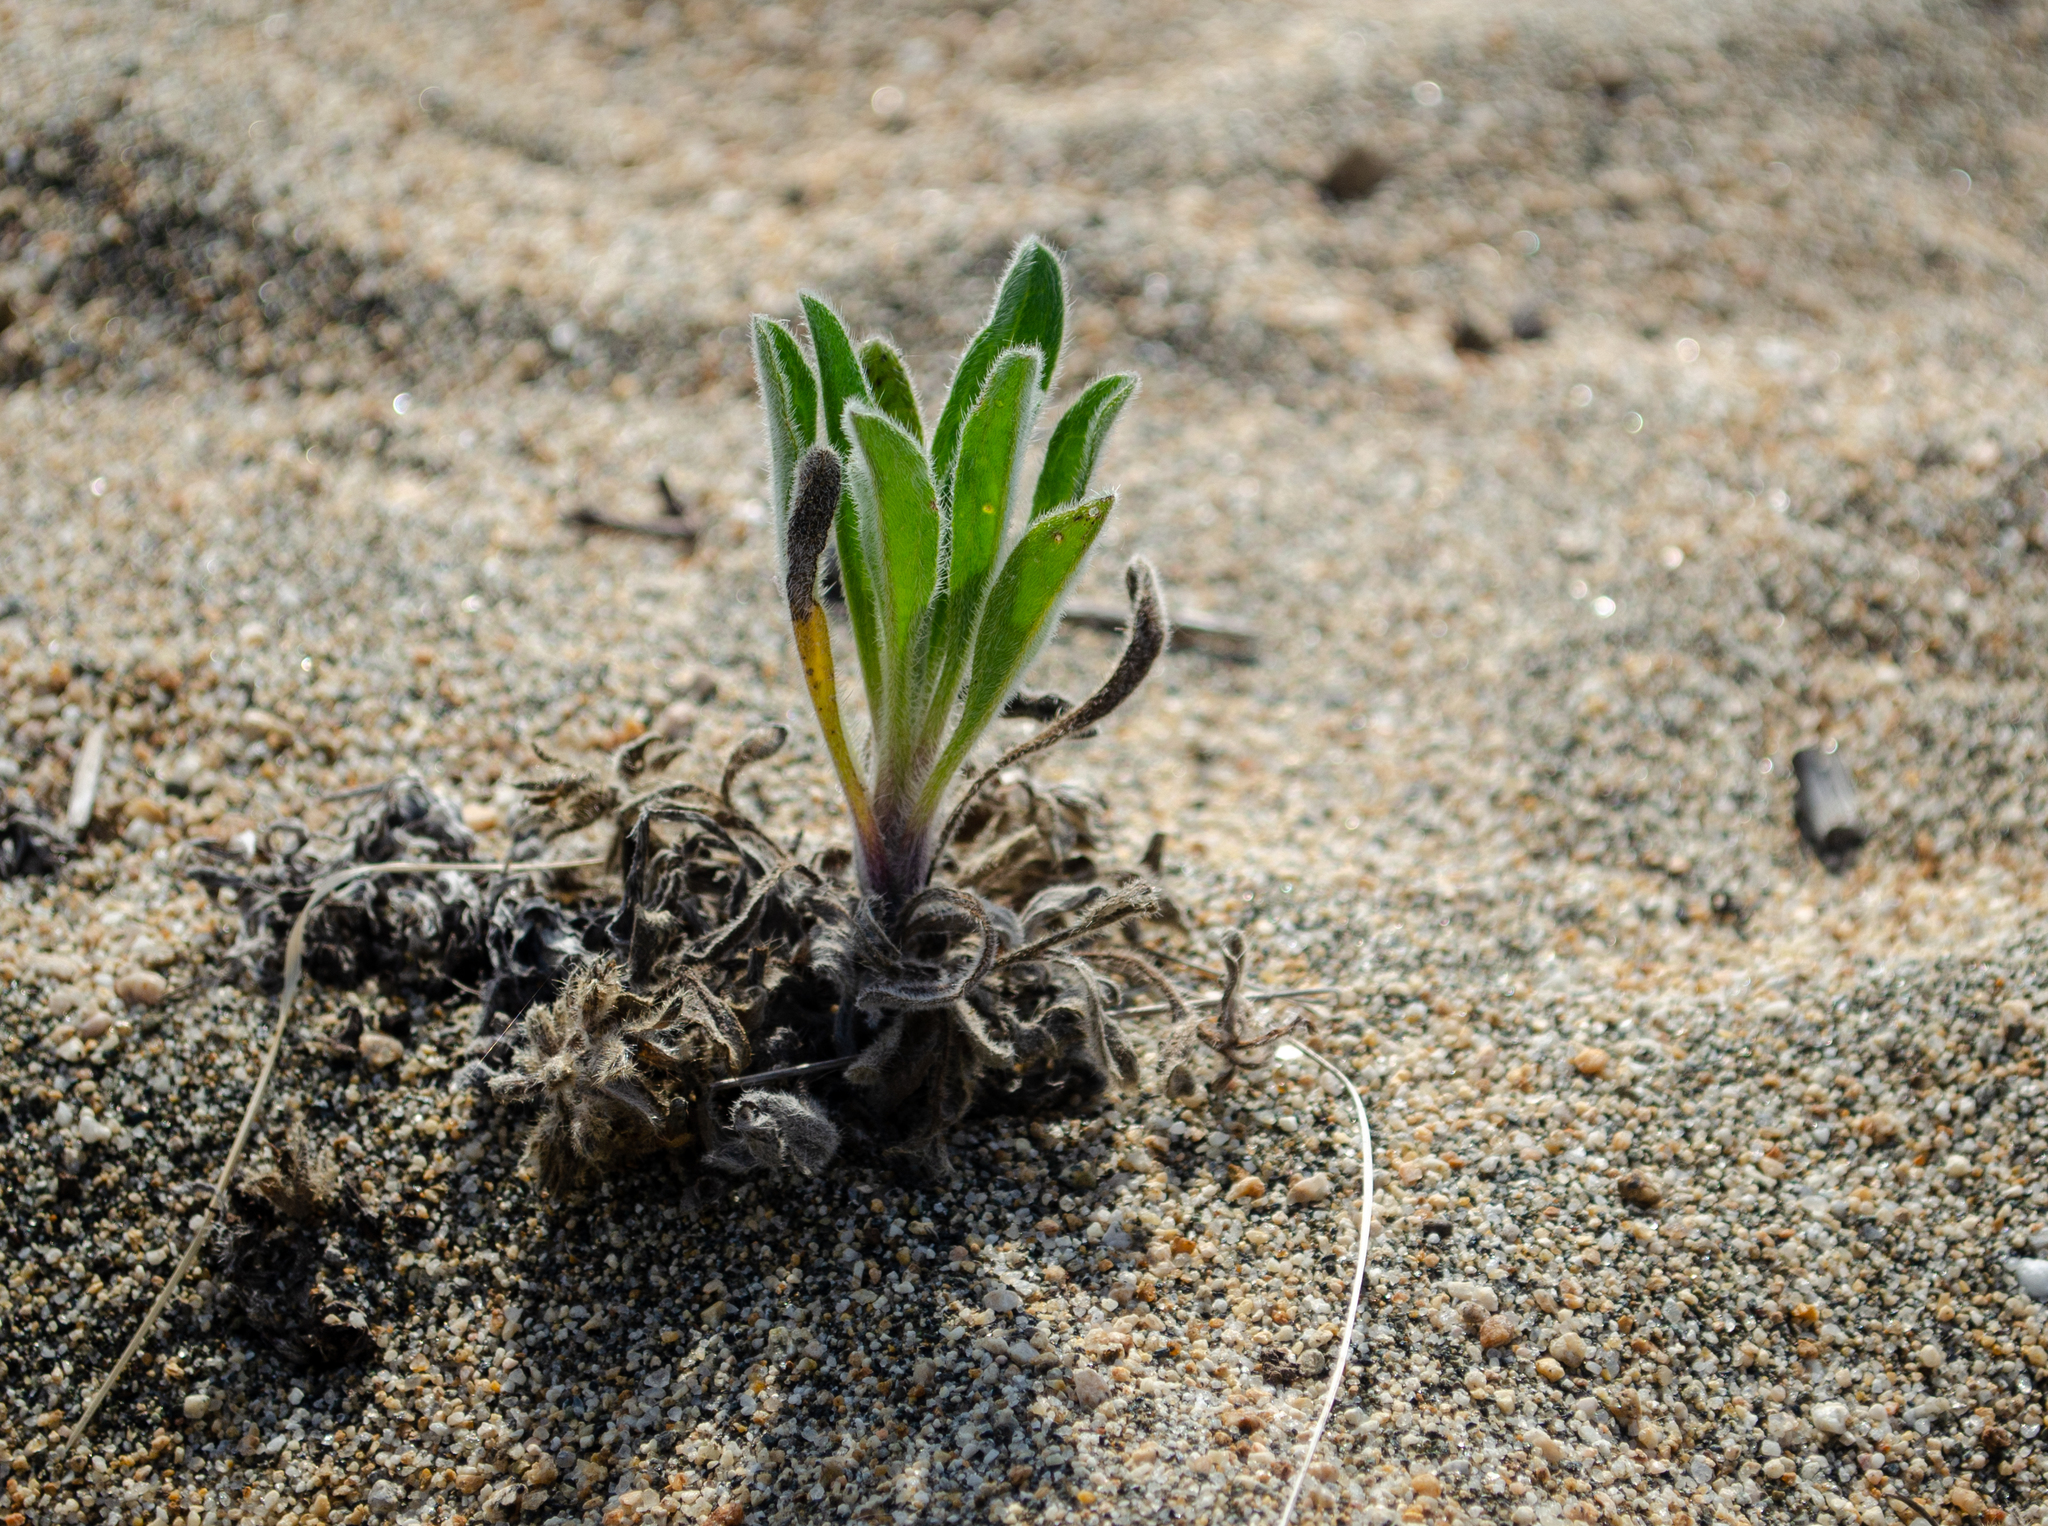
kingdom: Plantae
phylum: Tracheophyta
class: Magnoliopsida
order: Boraginales
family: Boraginaceae
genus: Craniospermum
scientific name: Craniospermum subvillosum
